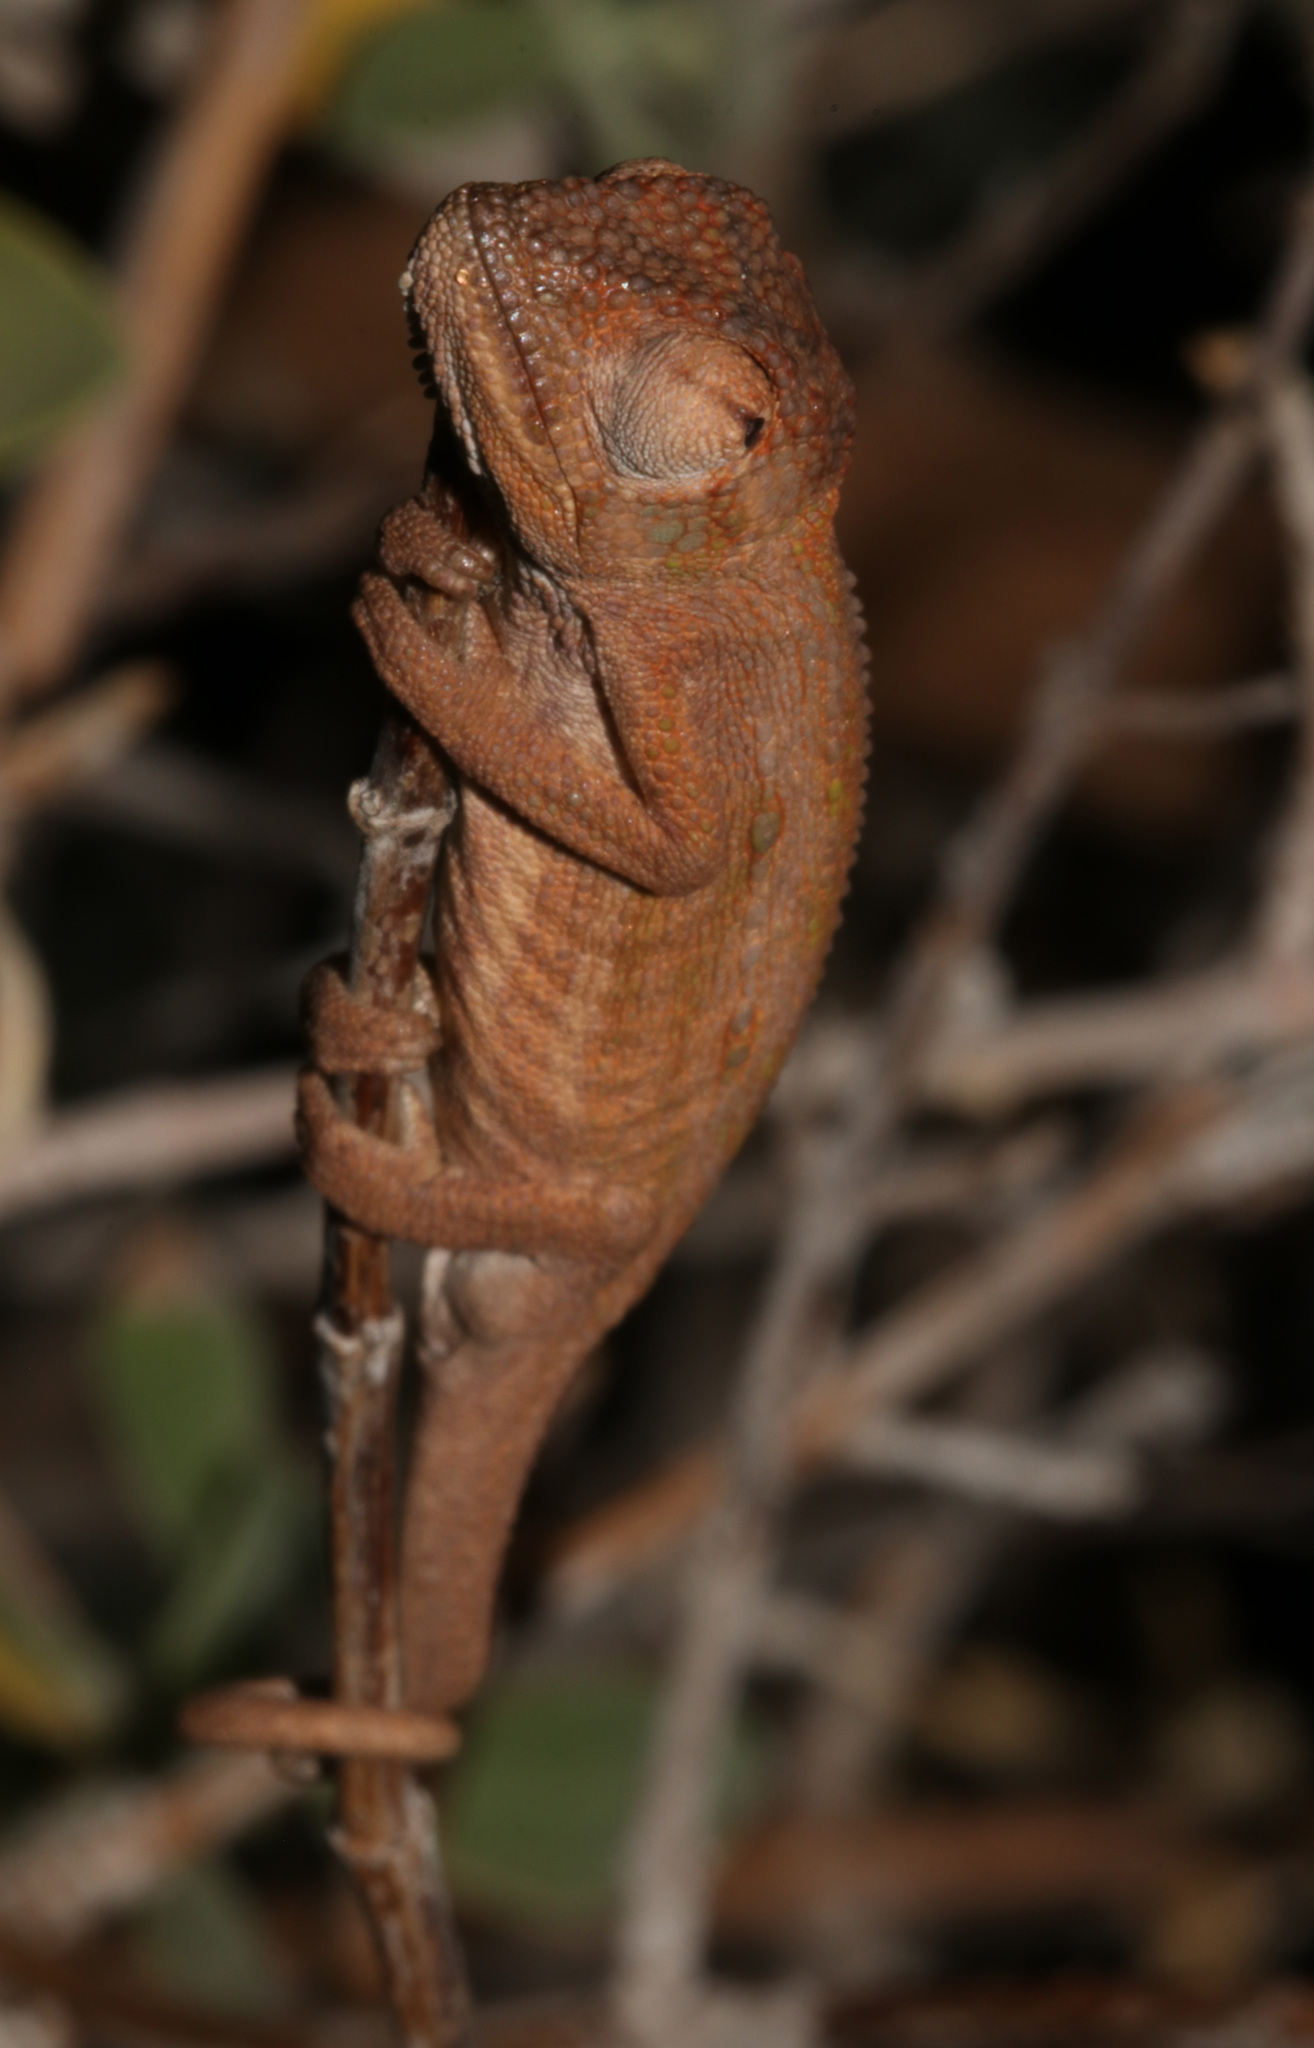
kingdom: Animalia
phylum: Chordata
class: Squamata
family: Chamaeleonidae
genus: Bradypodion
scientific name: Bradypodion pumilum
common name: Cape dwarf chameleon
